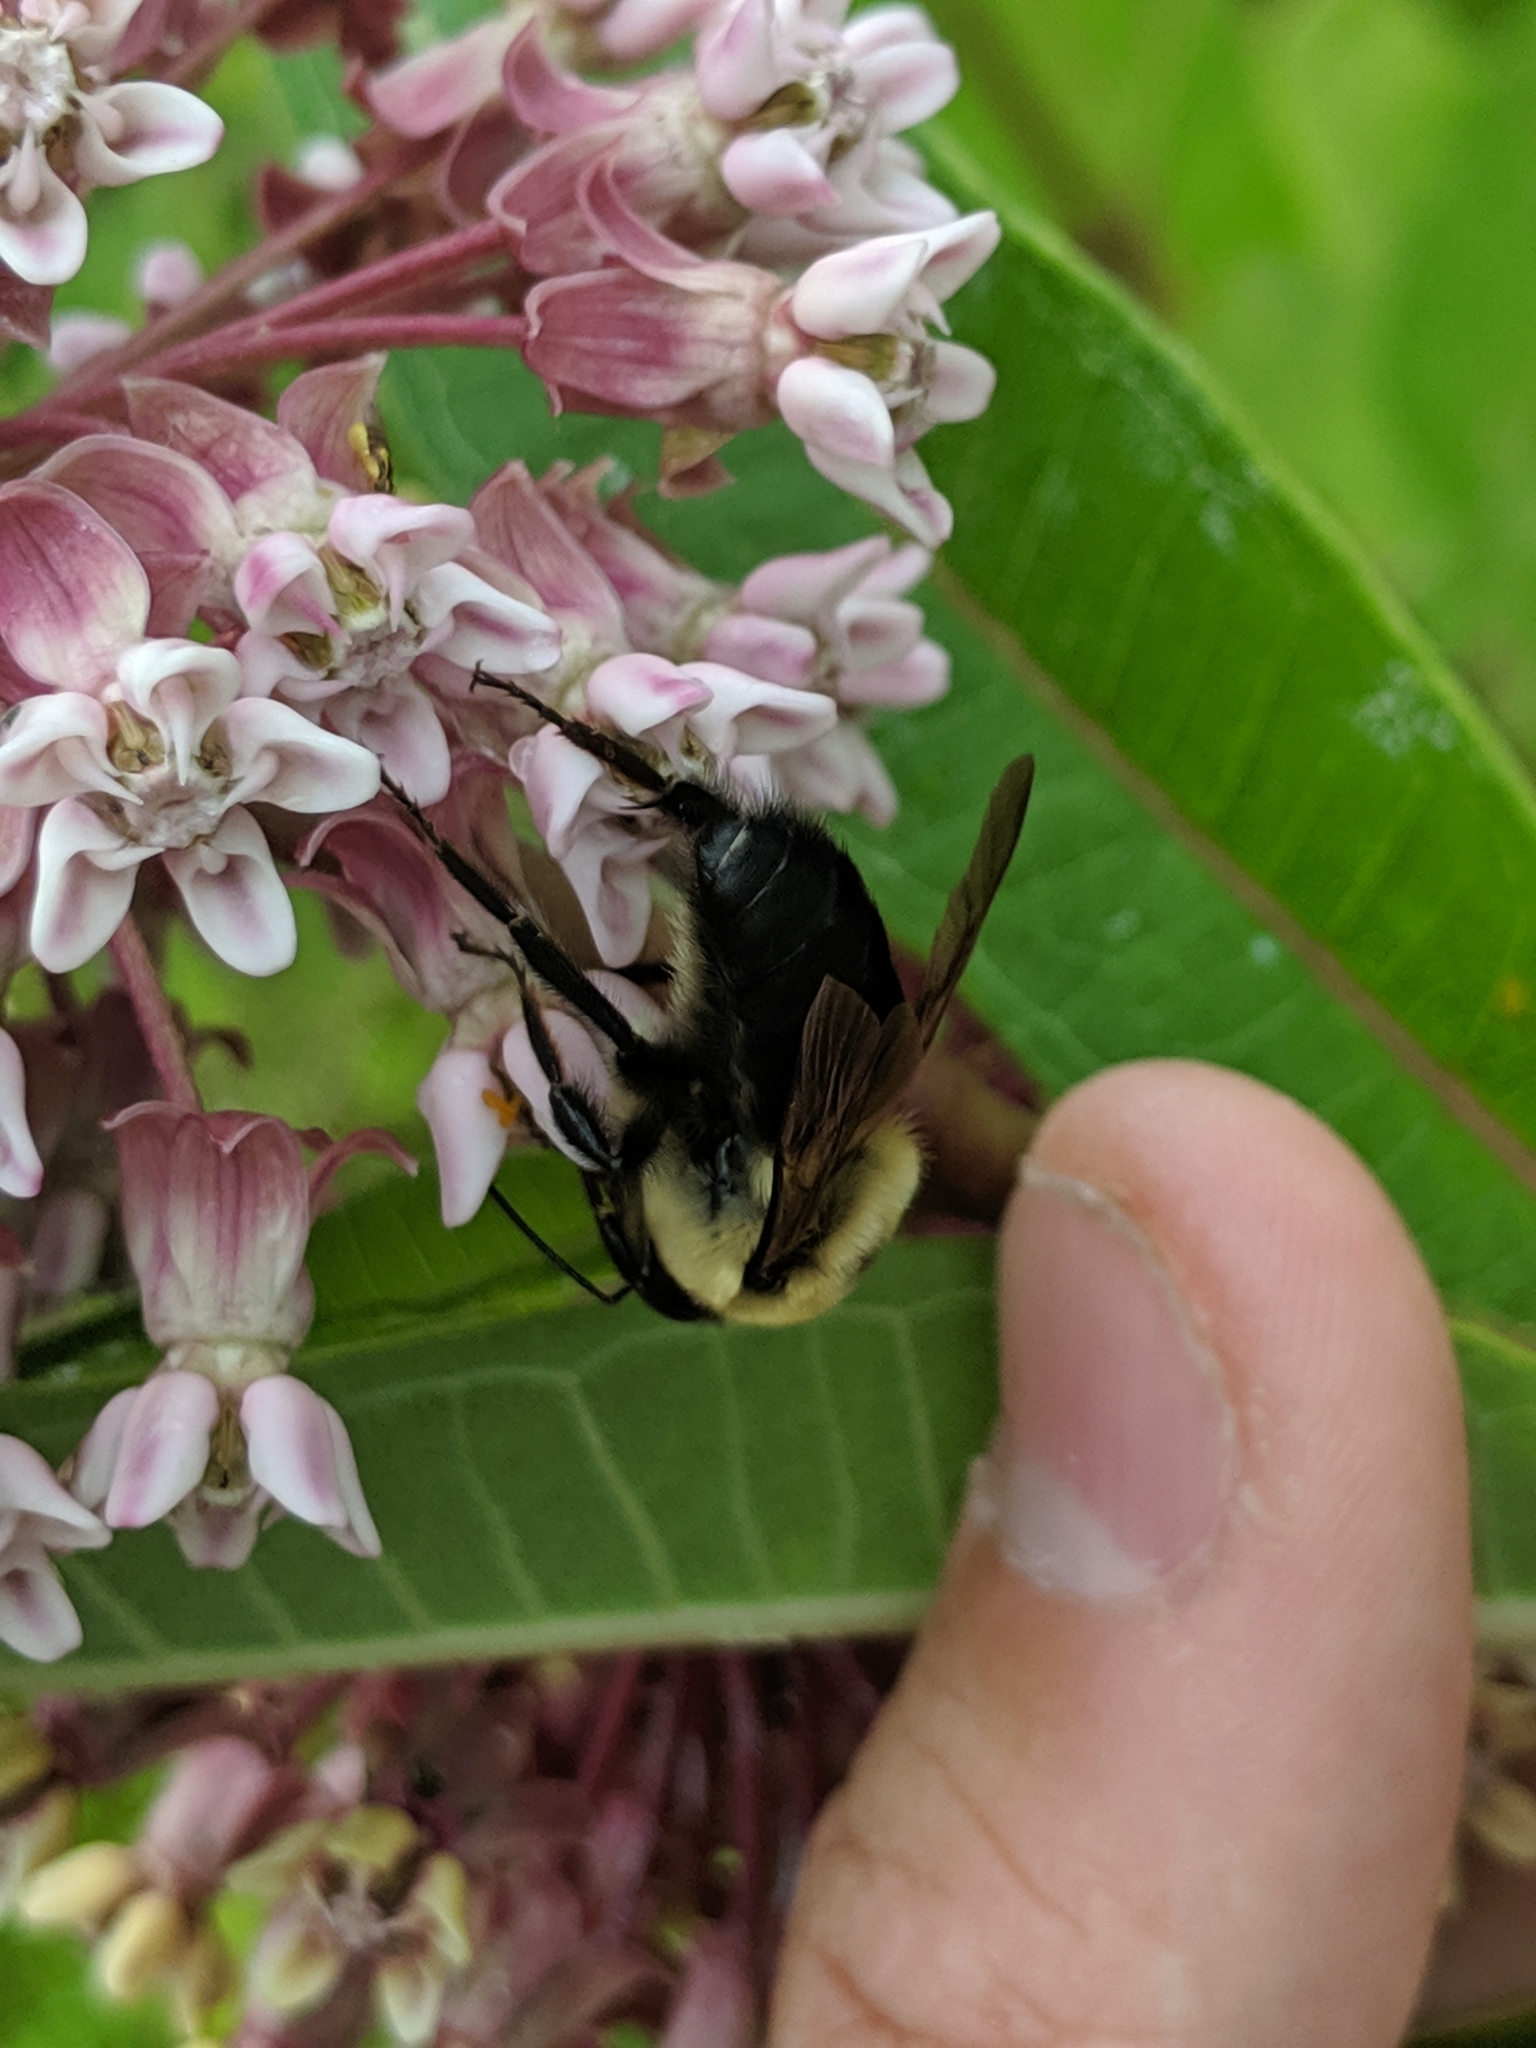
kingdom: Animalia
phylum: Arthropoda
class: Insecta
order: Hymenoptera
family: Apidae
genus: Bombus
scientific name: Bombus griseocollis
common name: Brown-belted bumble bee
